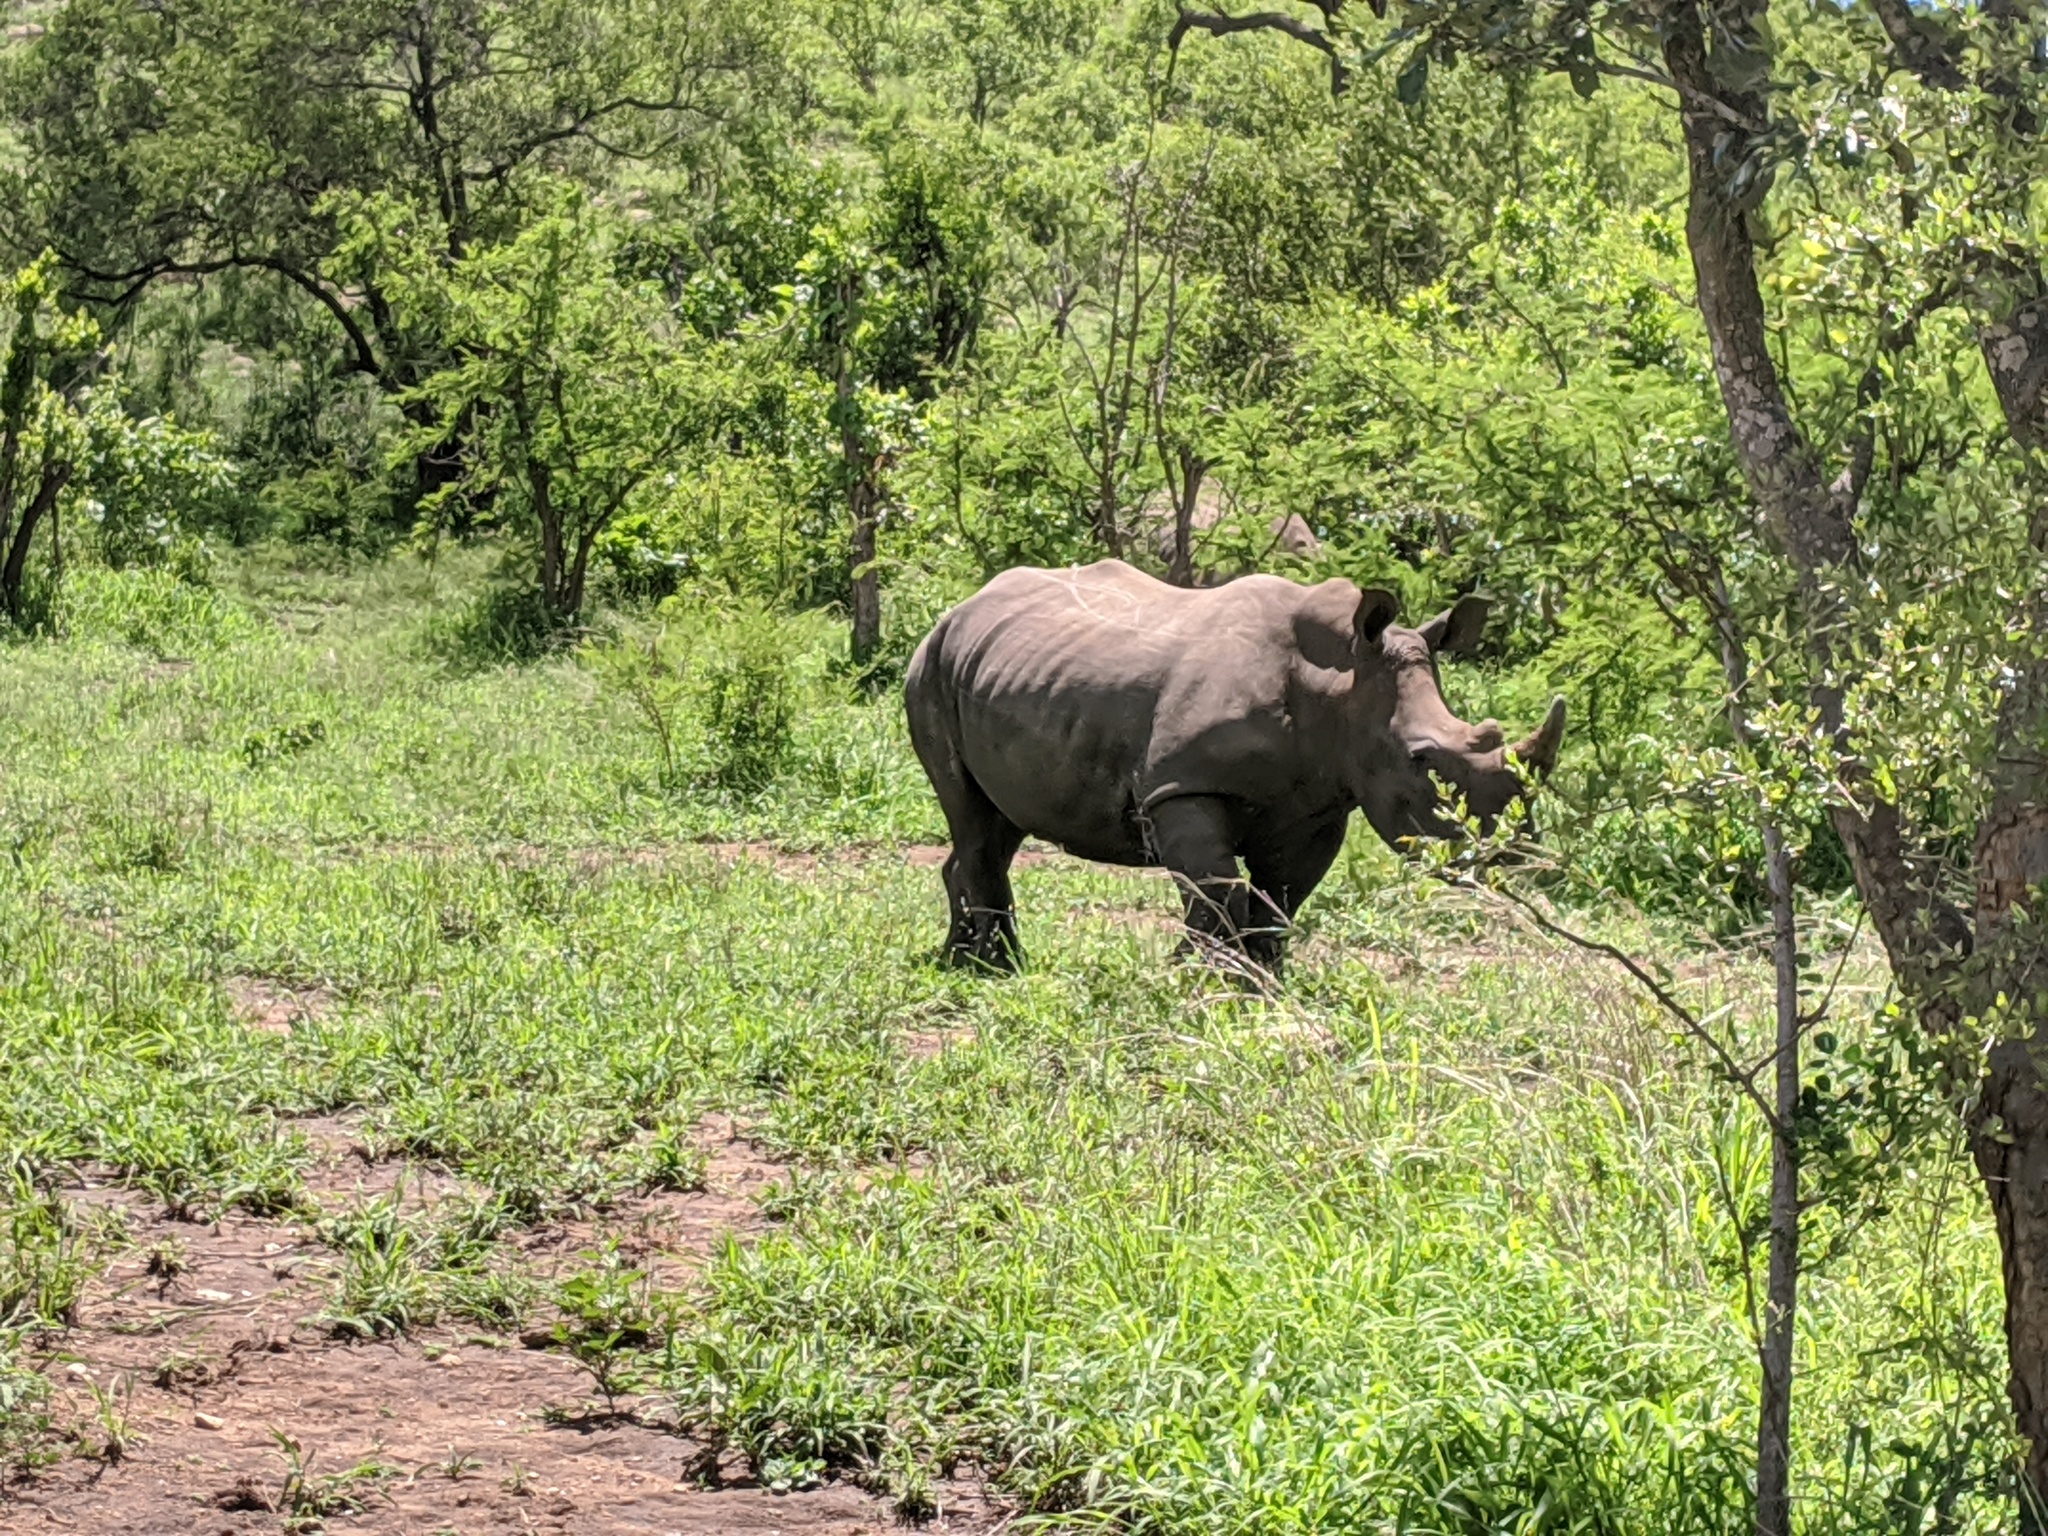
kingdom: Animalia
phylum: Chordata
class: Mammalia
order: Perissodactyla
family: Rhinocerotidae
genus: Ceratotherium
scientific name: Ceratotherium simum
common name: White rhinoceros
